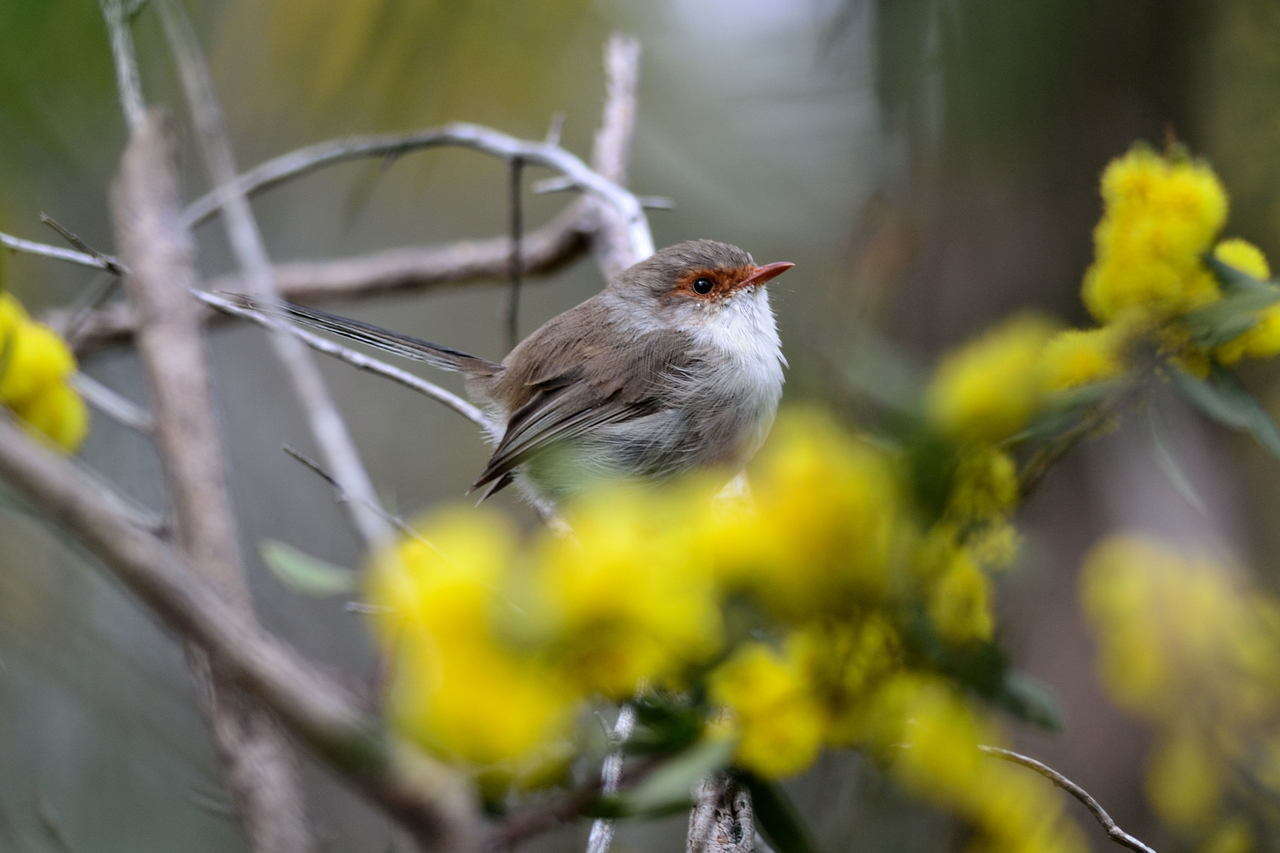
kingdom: Animalia
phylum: Chordata
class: Aves
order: Passeriformes
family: Maluridae
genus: Malurus
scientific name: Malurus cyaneus
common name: Superb fairywren
